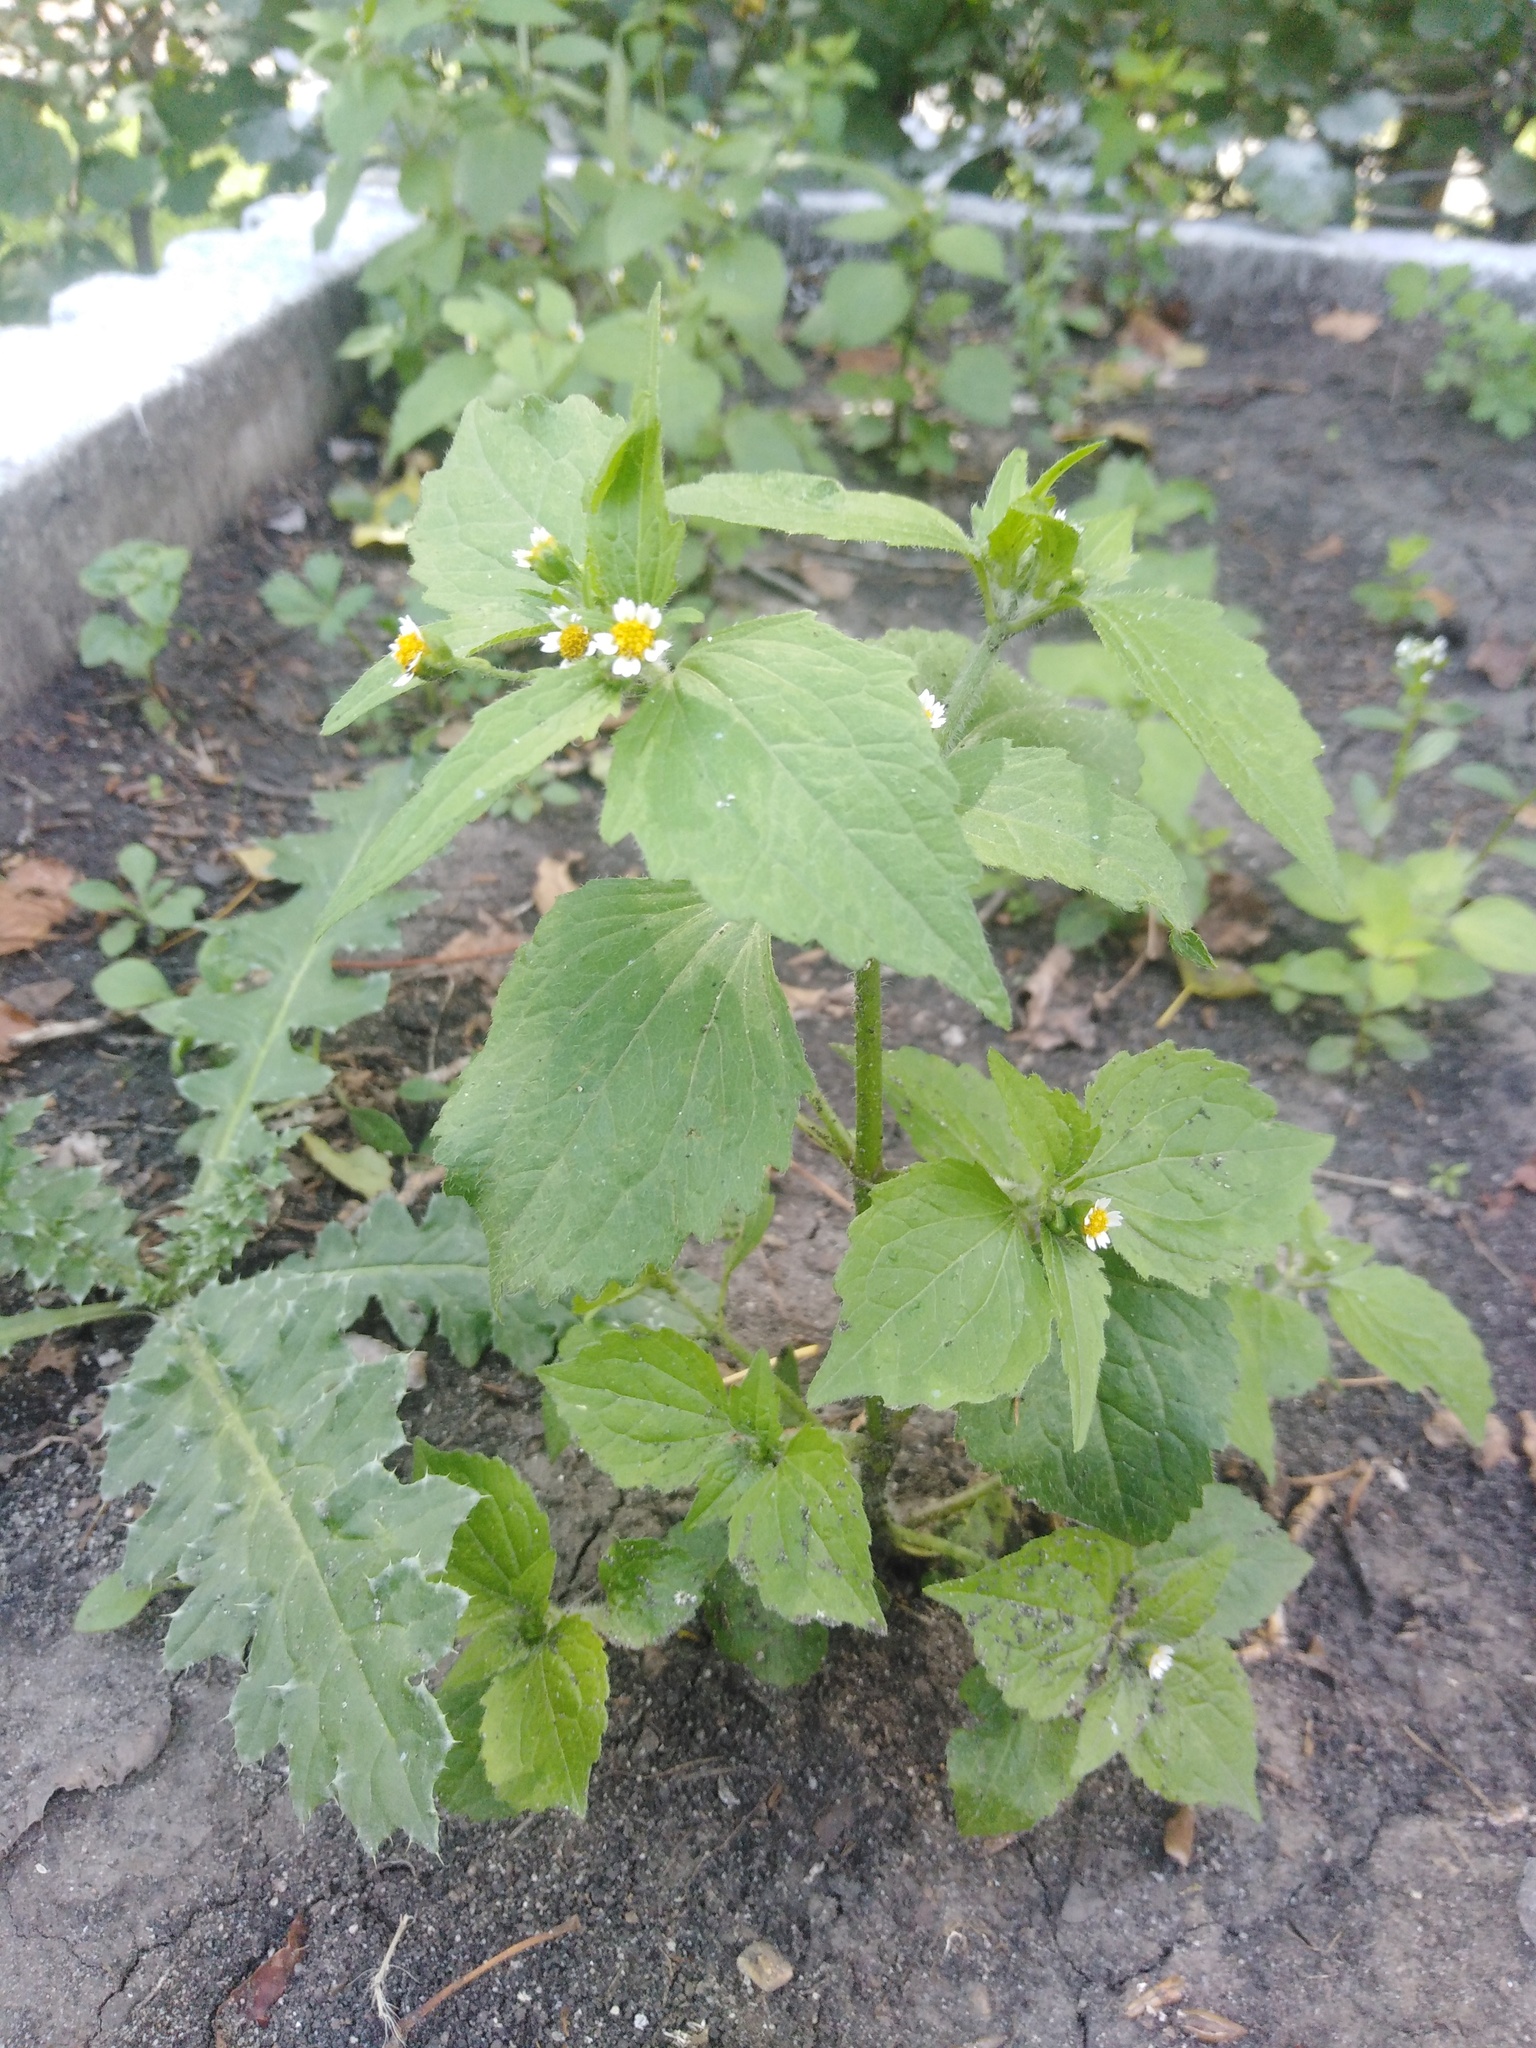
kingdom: Plantae
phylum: Tracheophyta
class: Magnoliopsida
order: Asterales
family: Asteraceae
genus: Galinsoga
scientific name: Galinsoga quadriradiata
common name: Shaggy soldier
